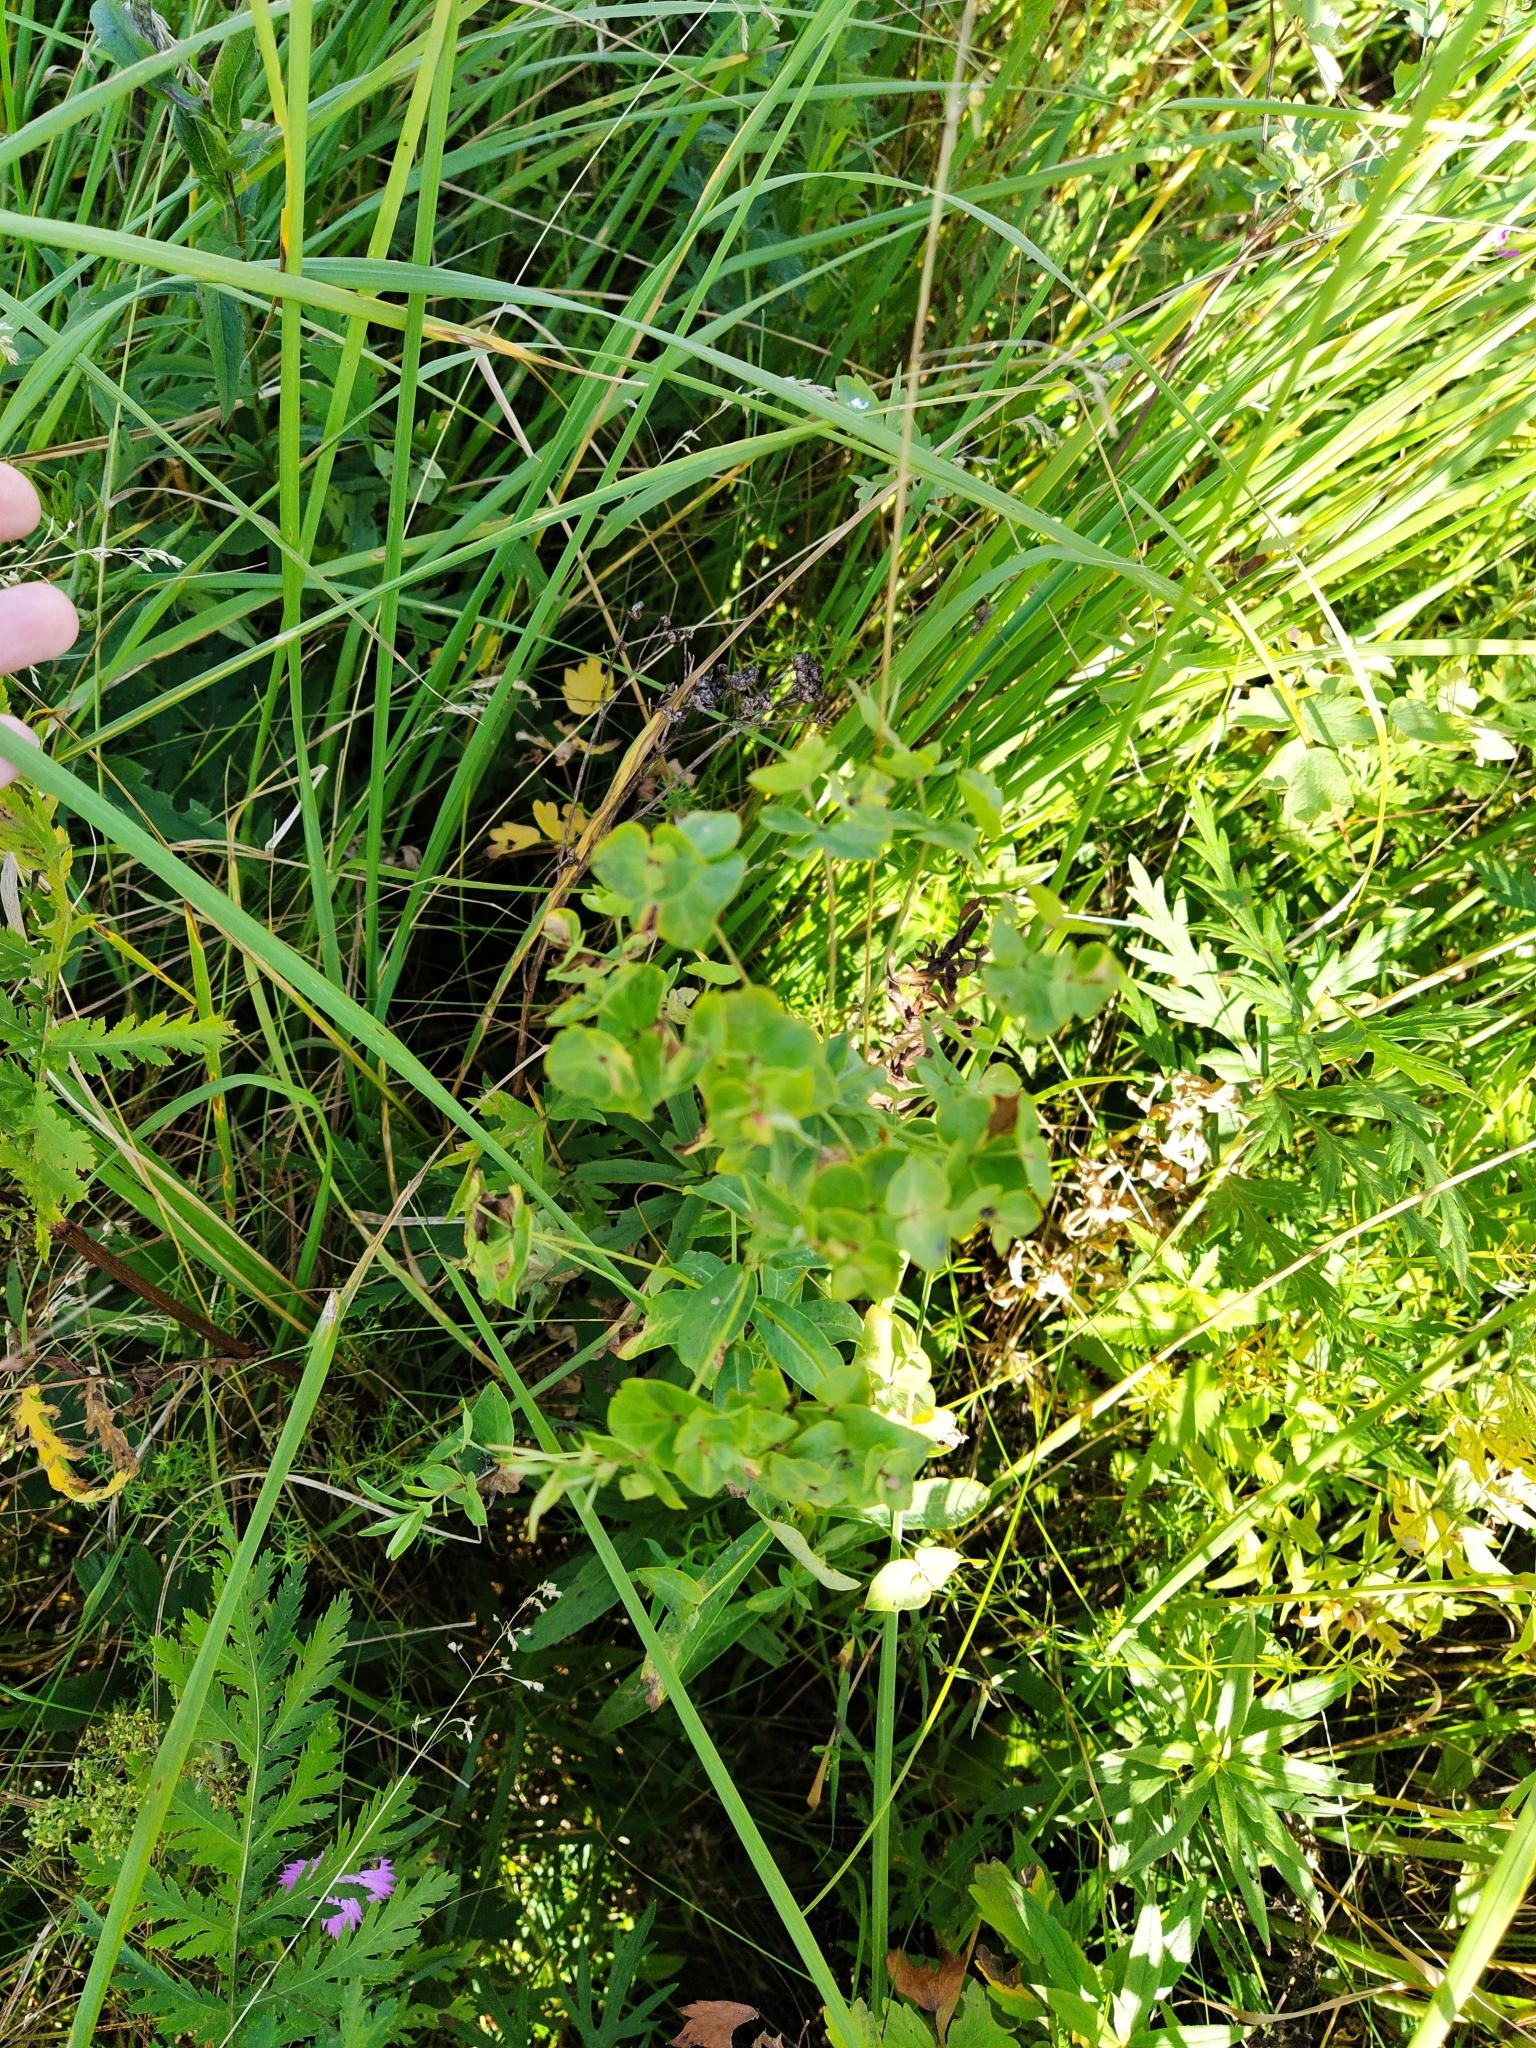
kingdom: Plantae
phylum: Tracheophyta
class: Magnoliopsida
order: Malpighiales
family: Euphorbiaceae
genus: Euphorbia
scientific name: Euphorbia virgata
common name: Leafy spurge
